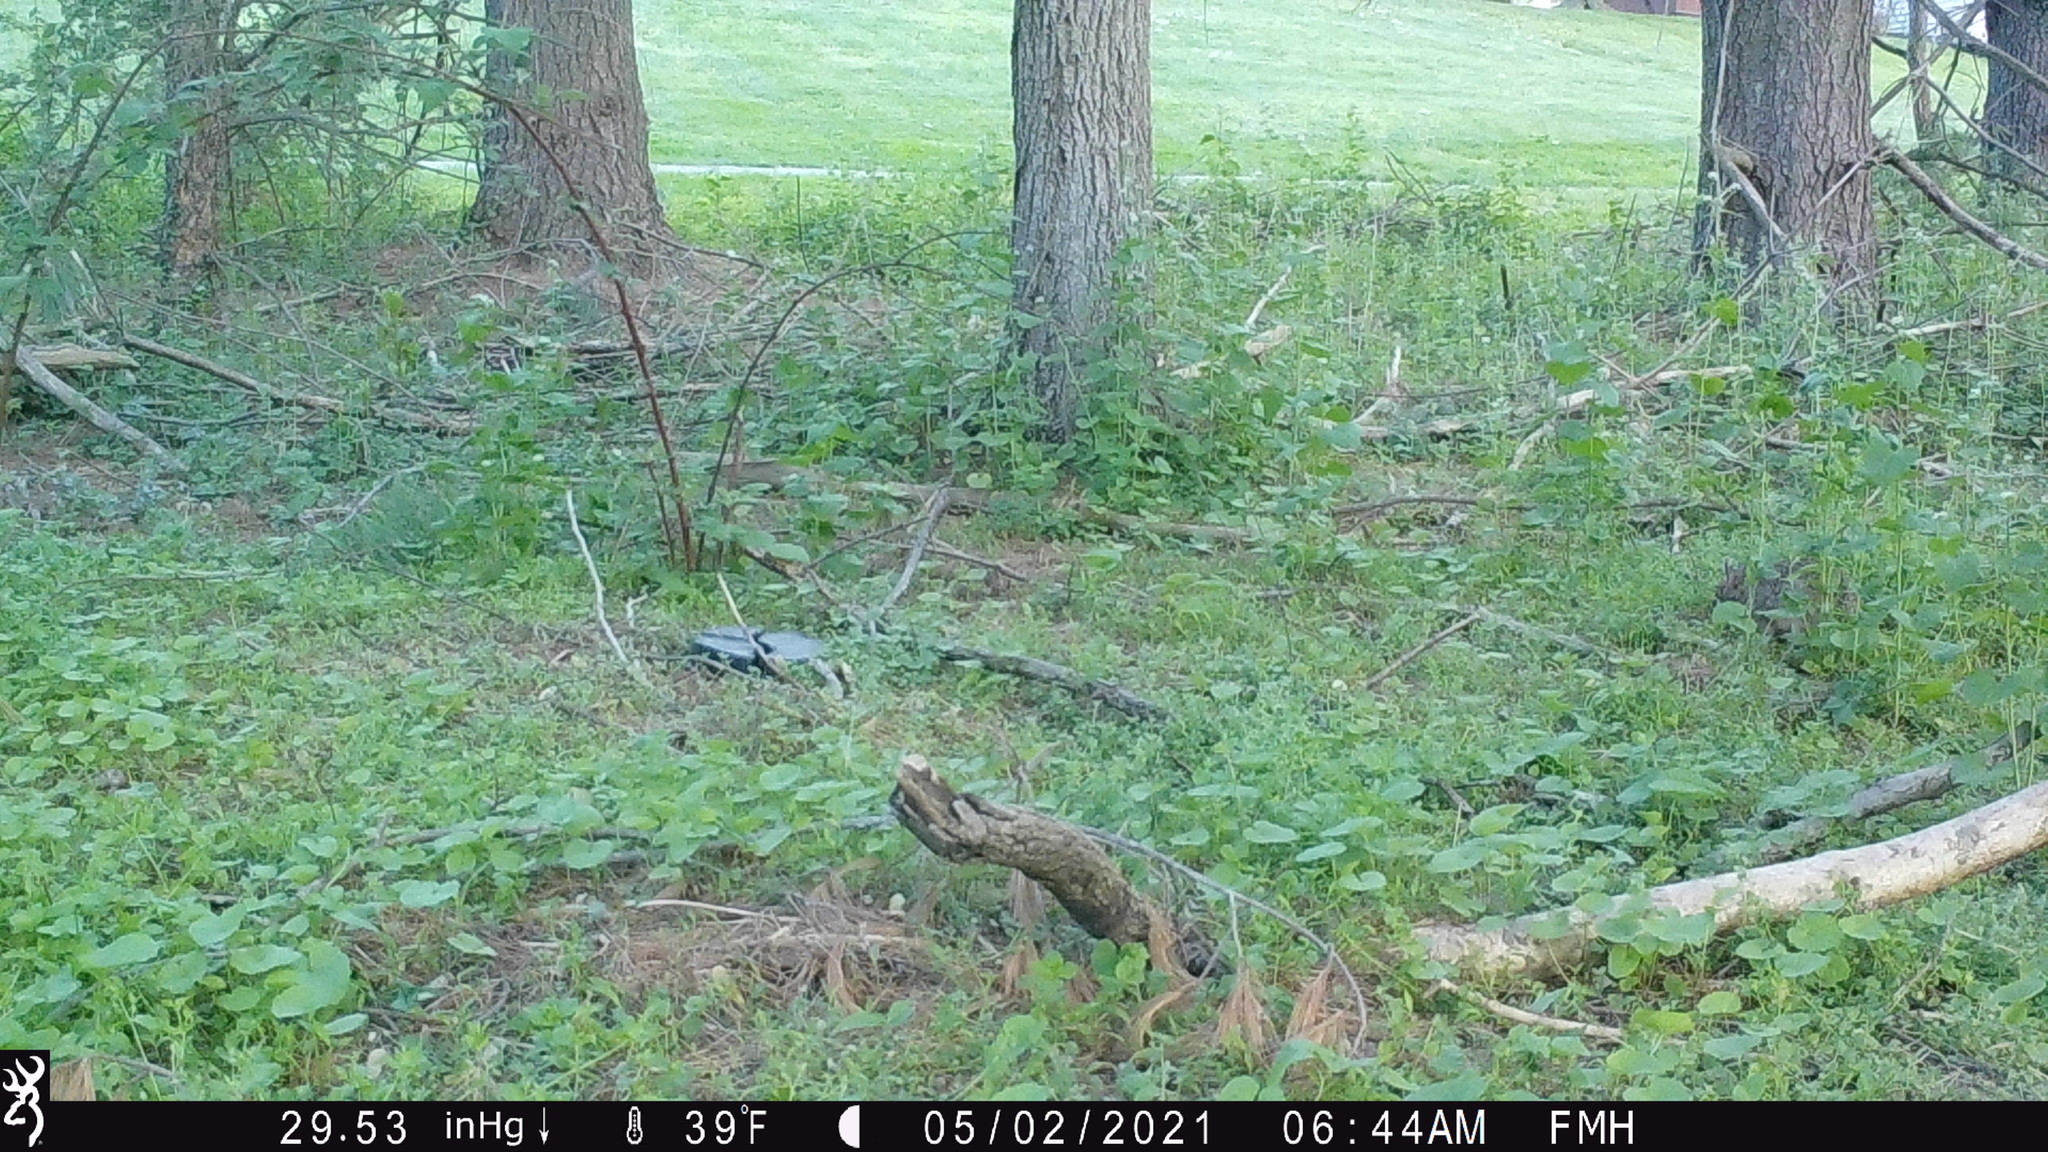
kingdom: Animalia
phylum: Chordata
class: Mammalia
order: Lagomorpha
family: Leporidae
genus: Sylvilagus
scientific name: Sylvilagus floridanus
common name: Eastern cottontail
